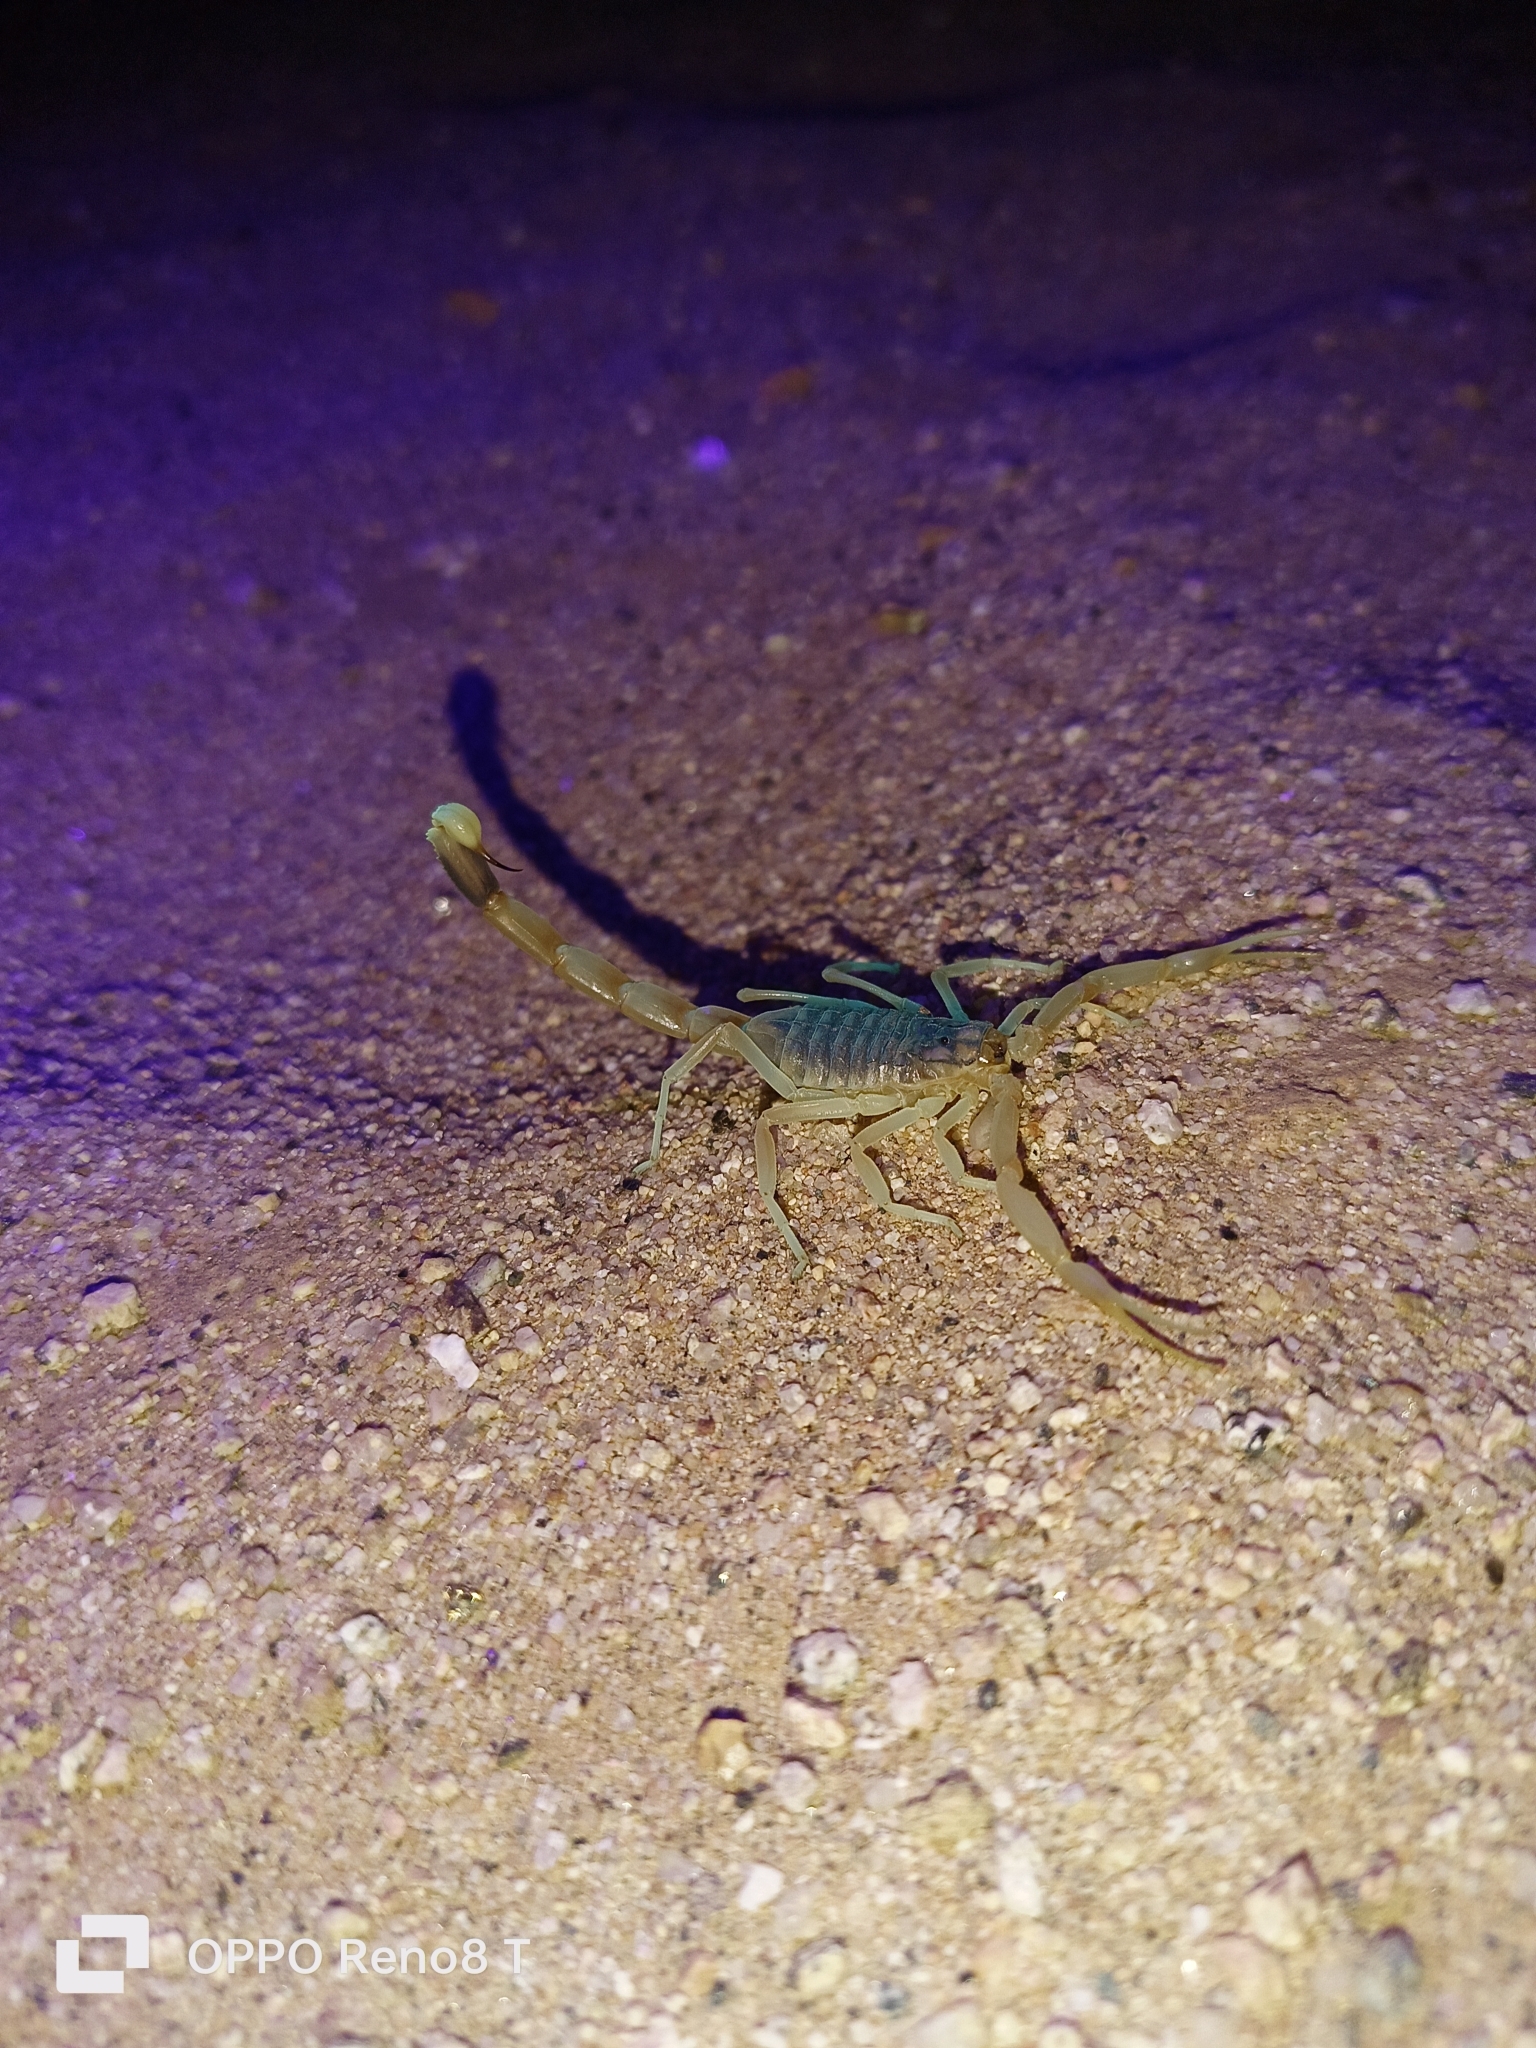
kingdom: Animalia
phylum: Arthropoda
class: Arachnida
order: Scorpiones
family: Buthidae
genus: Leiurus
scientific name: Leiurus hoggarensis
